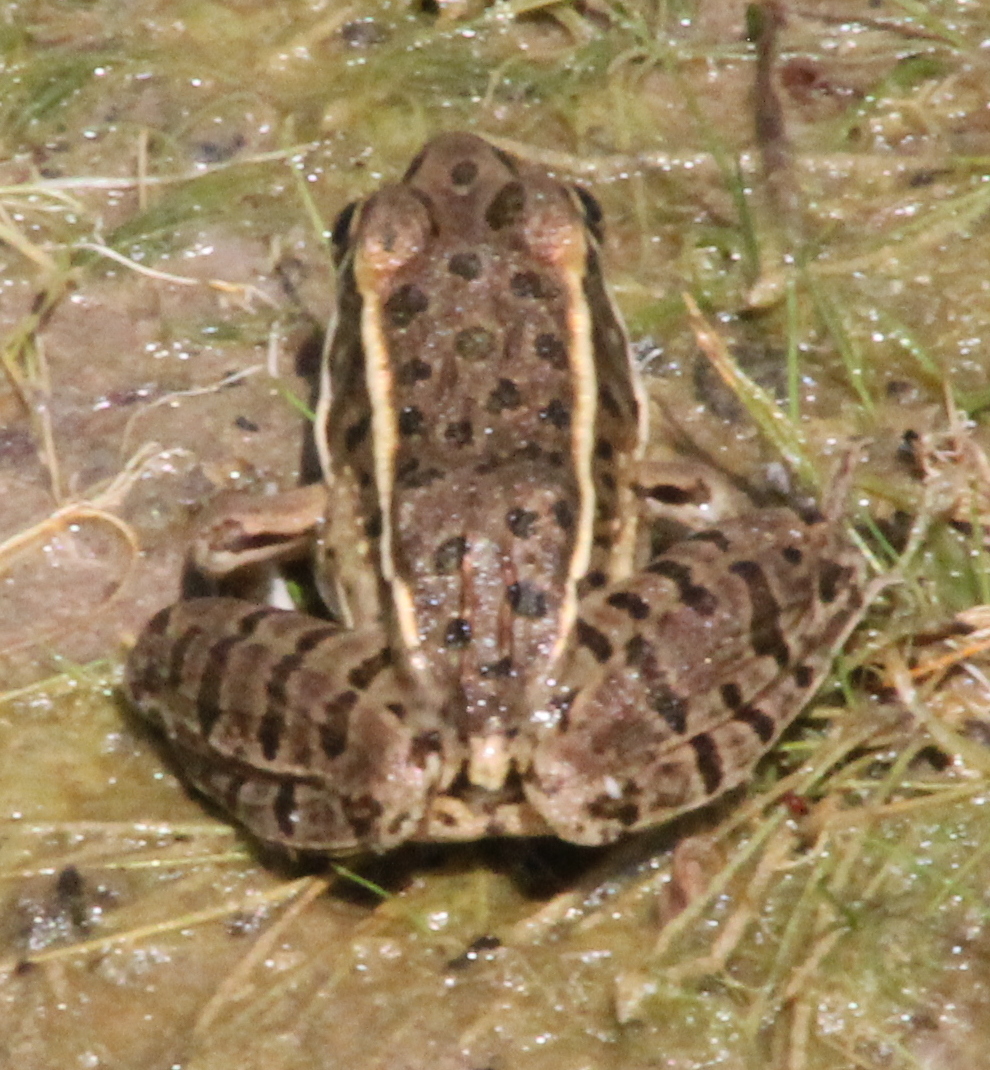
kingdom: Animalia
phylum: Chordata
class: Amphibia
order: Anura
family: Ranidae
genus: Lithobates
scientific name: Lithobates blairi
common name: Plains leopard frog
